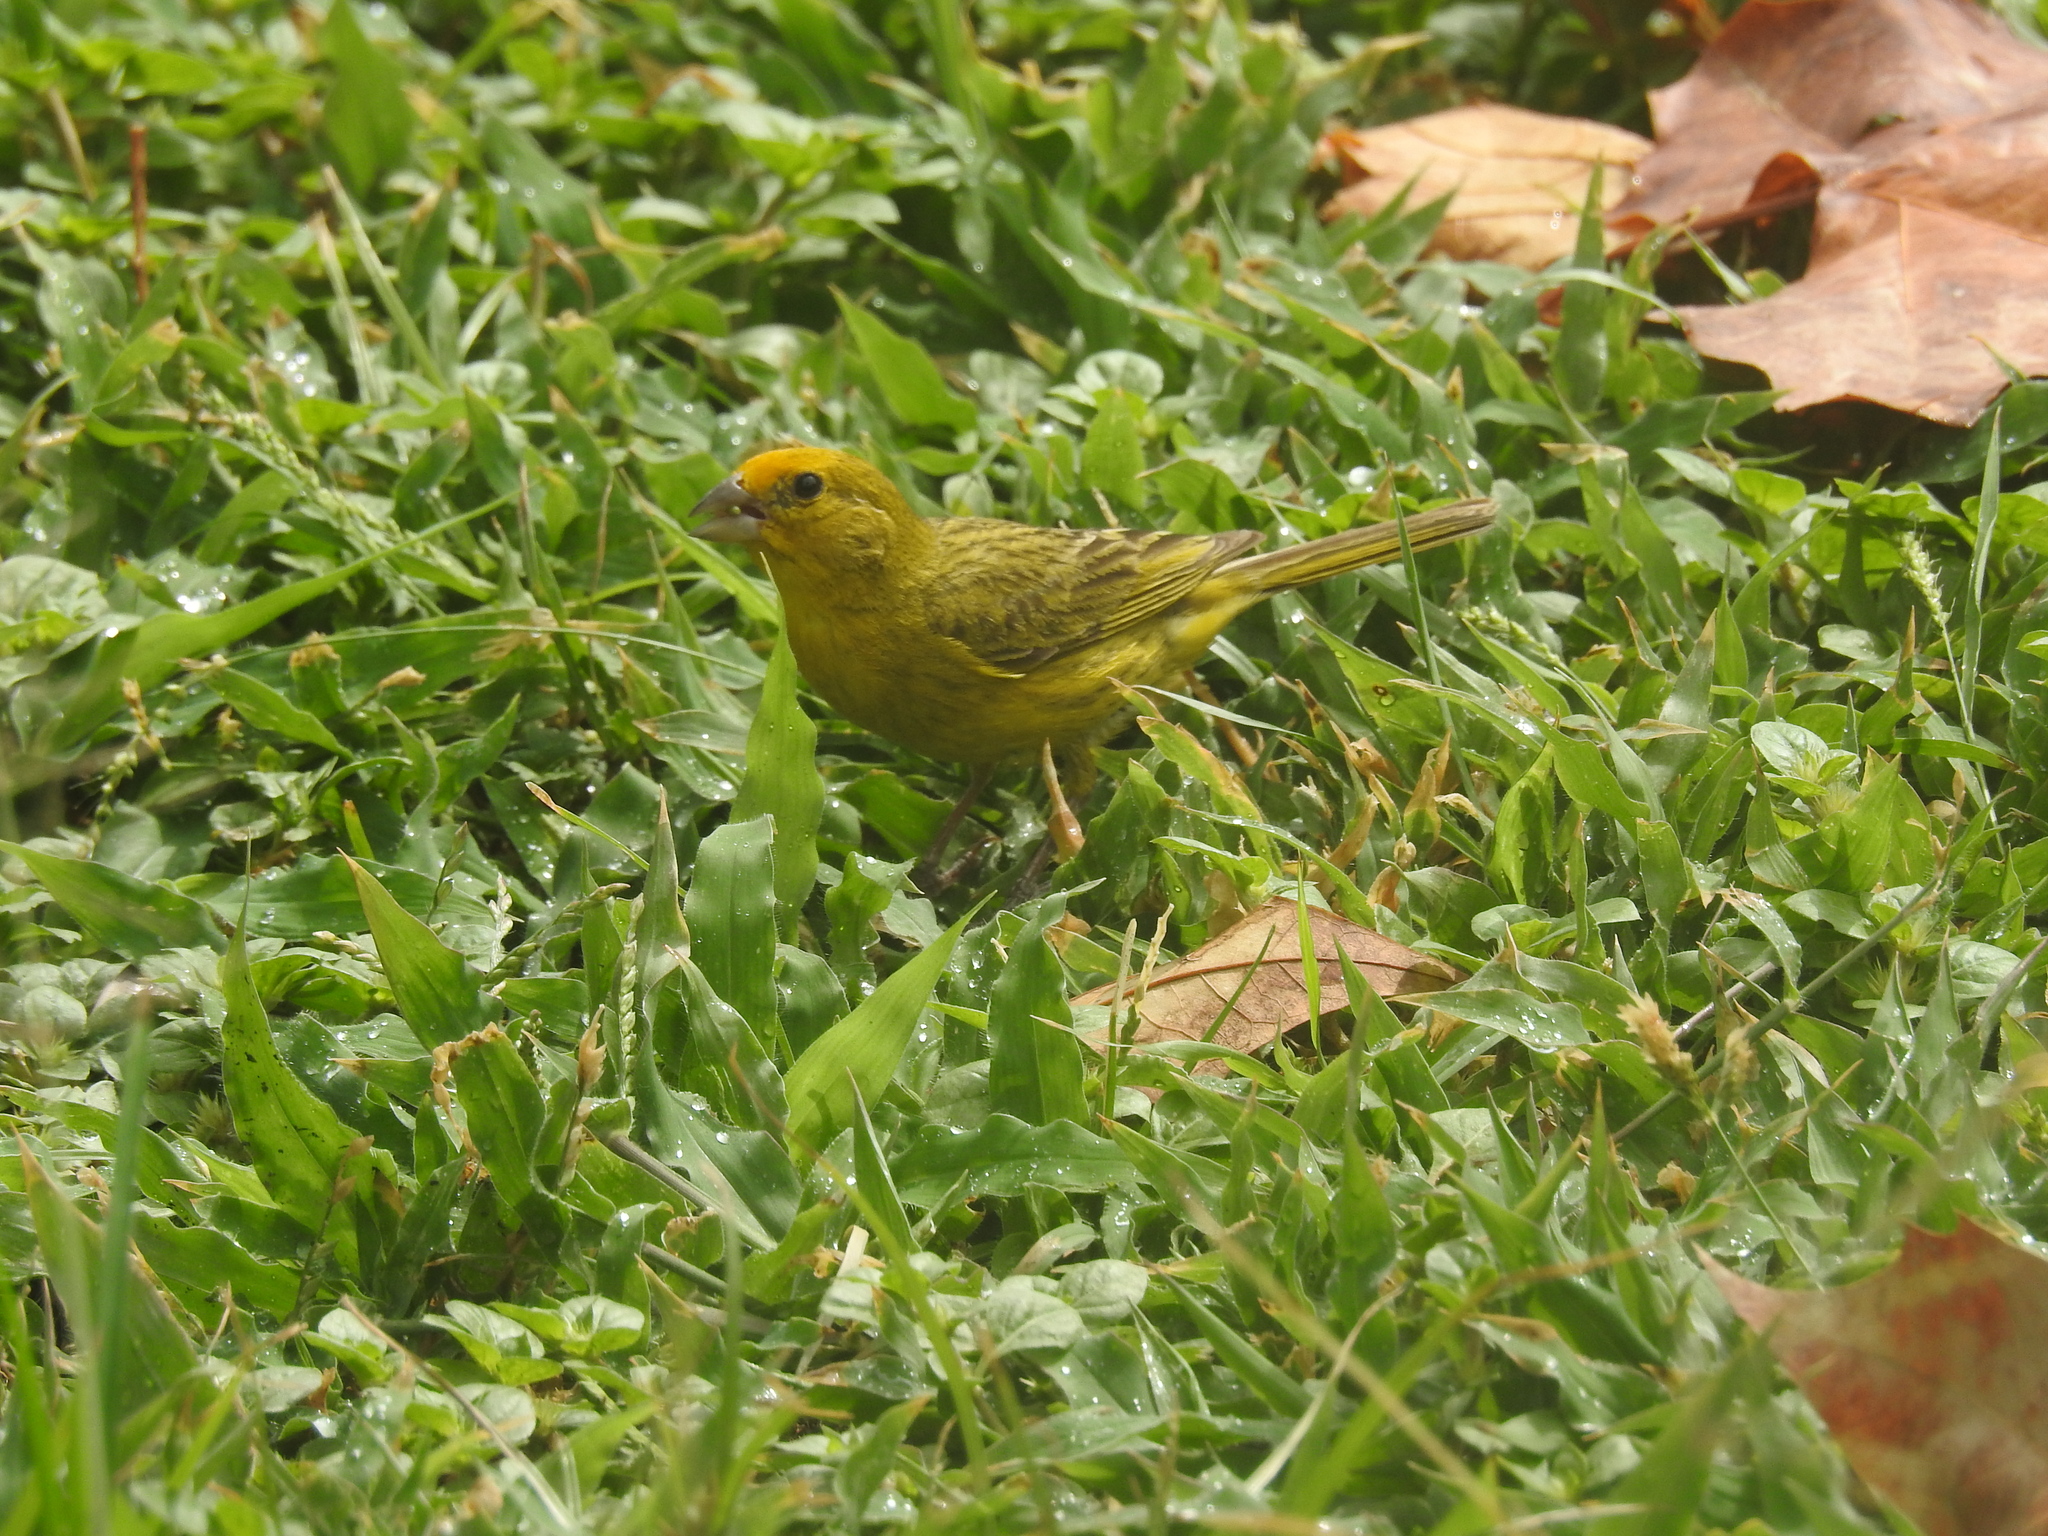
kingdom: Animalia
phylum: Chordata
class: Aves
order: Passeriformes
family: Thraupidae
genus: Sicalis
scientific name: Sicalis flaveola
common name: Saffron finch
